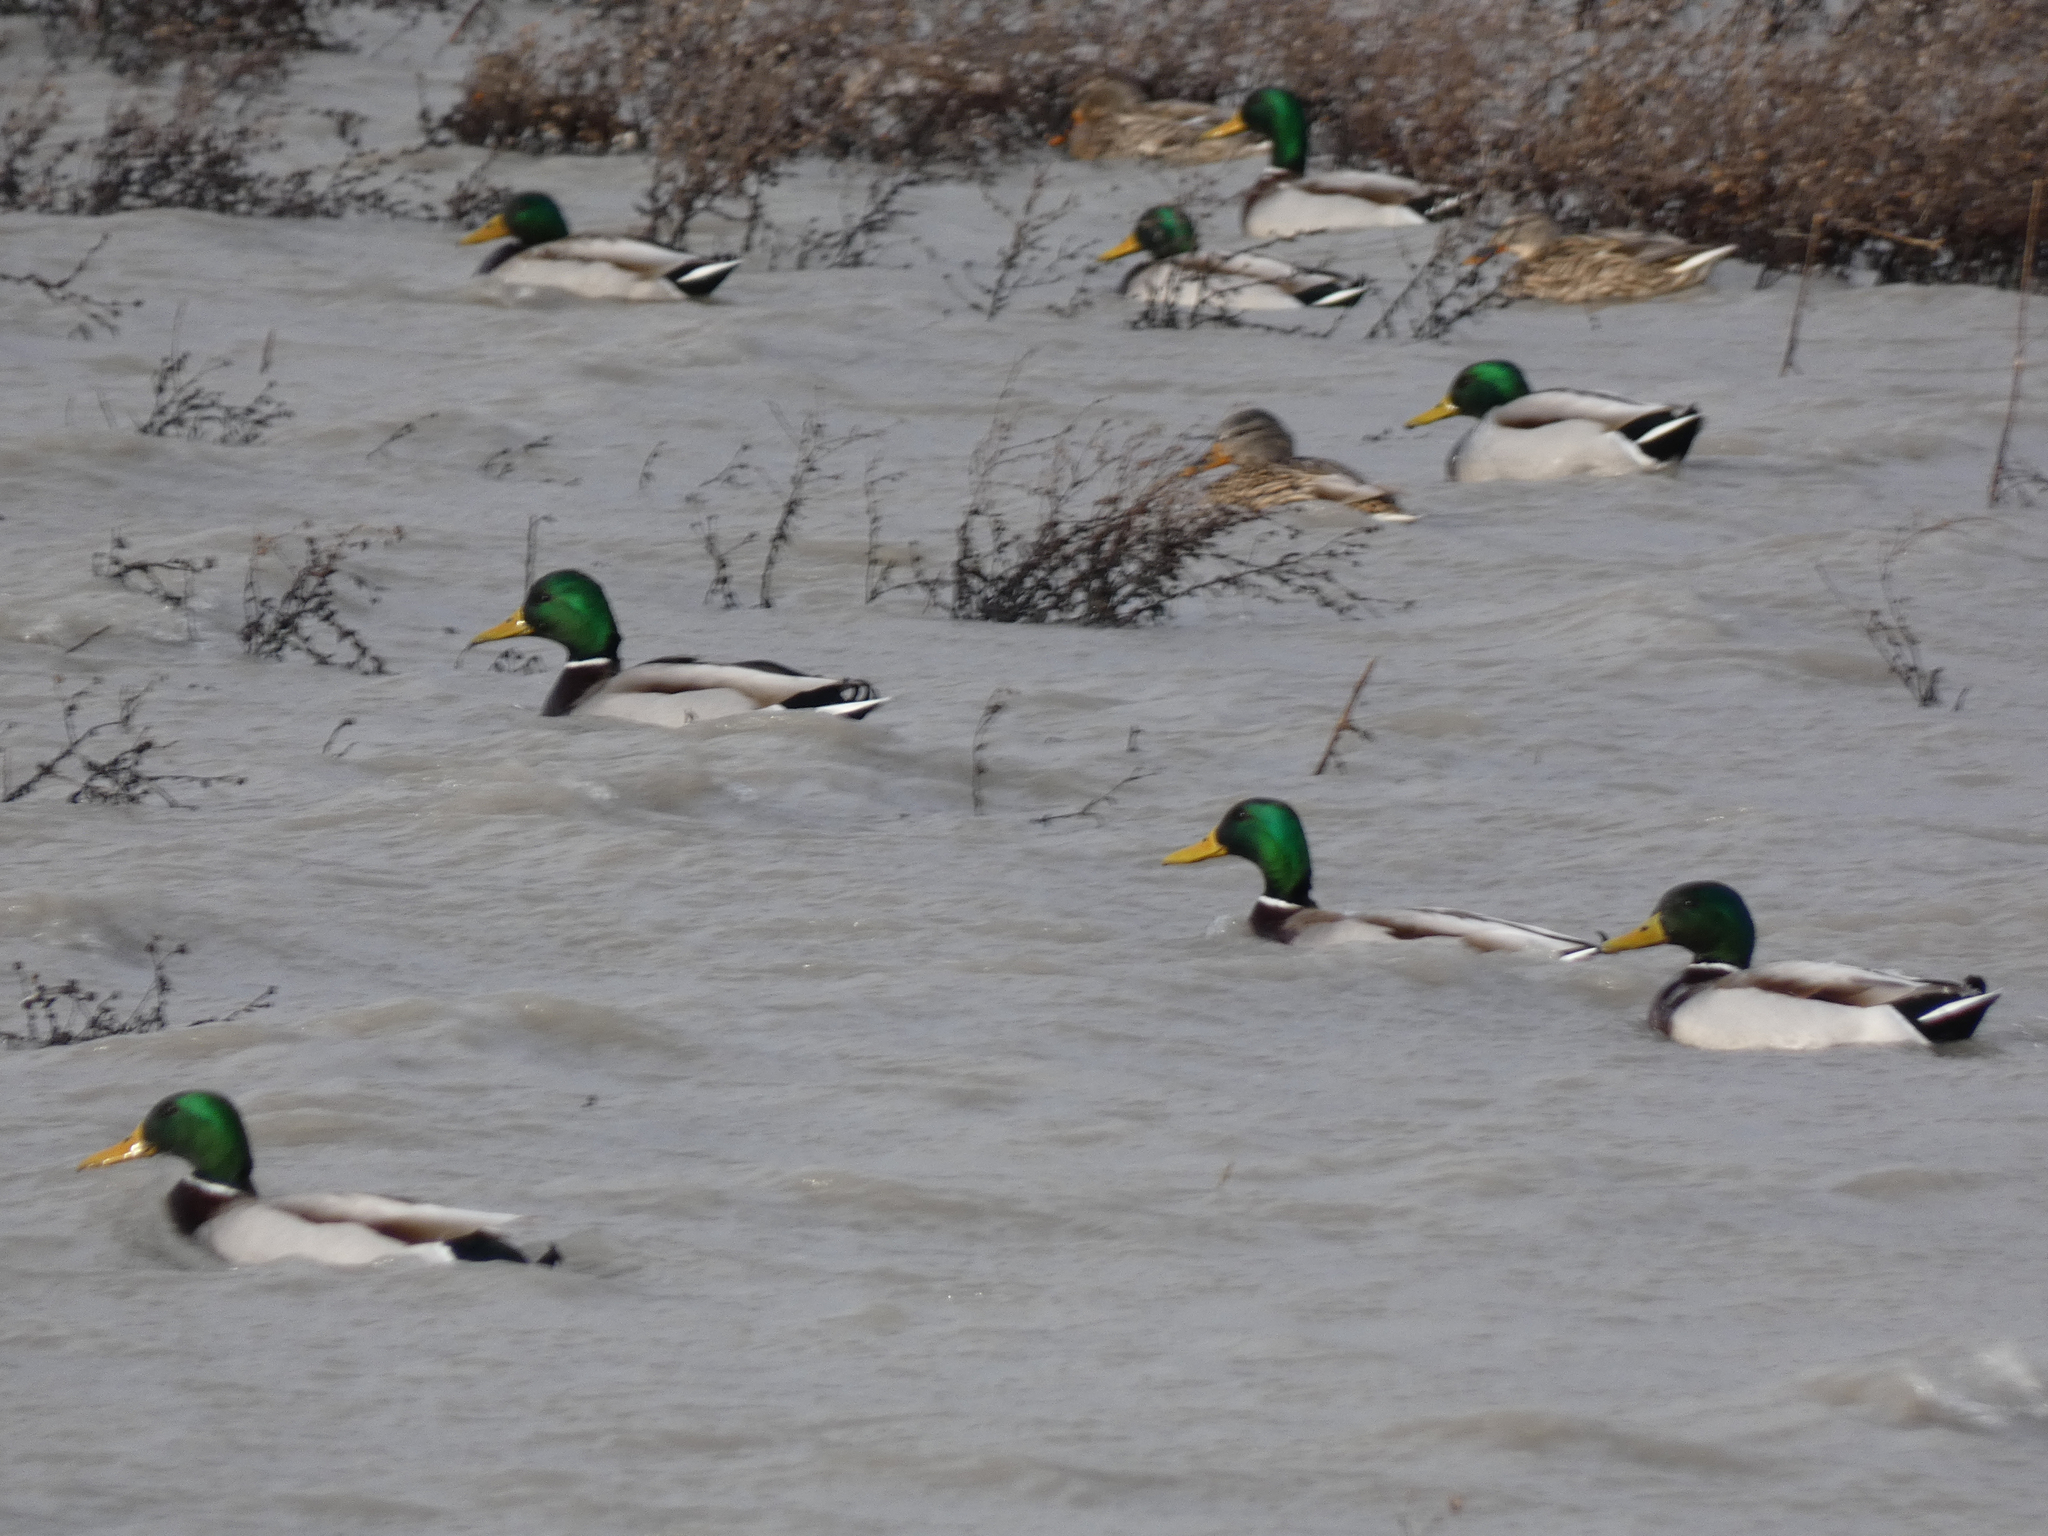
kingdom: Animalia
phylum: Chordata
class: Aves
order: Anseriformes
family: Anatidae
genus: Anas
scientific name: Anas platyrhynchos
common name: Mallard
